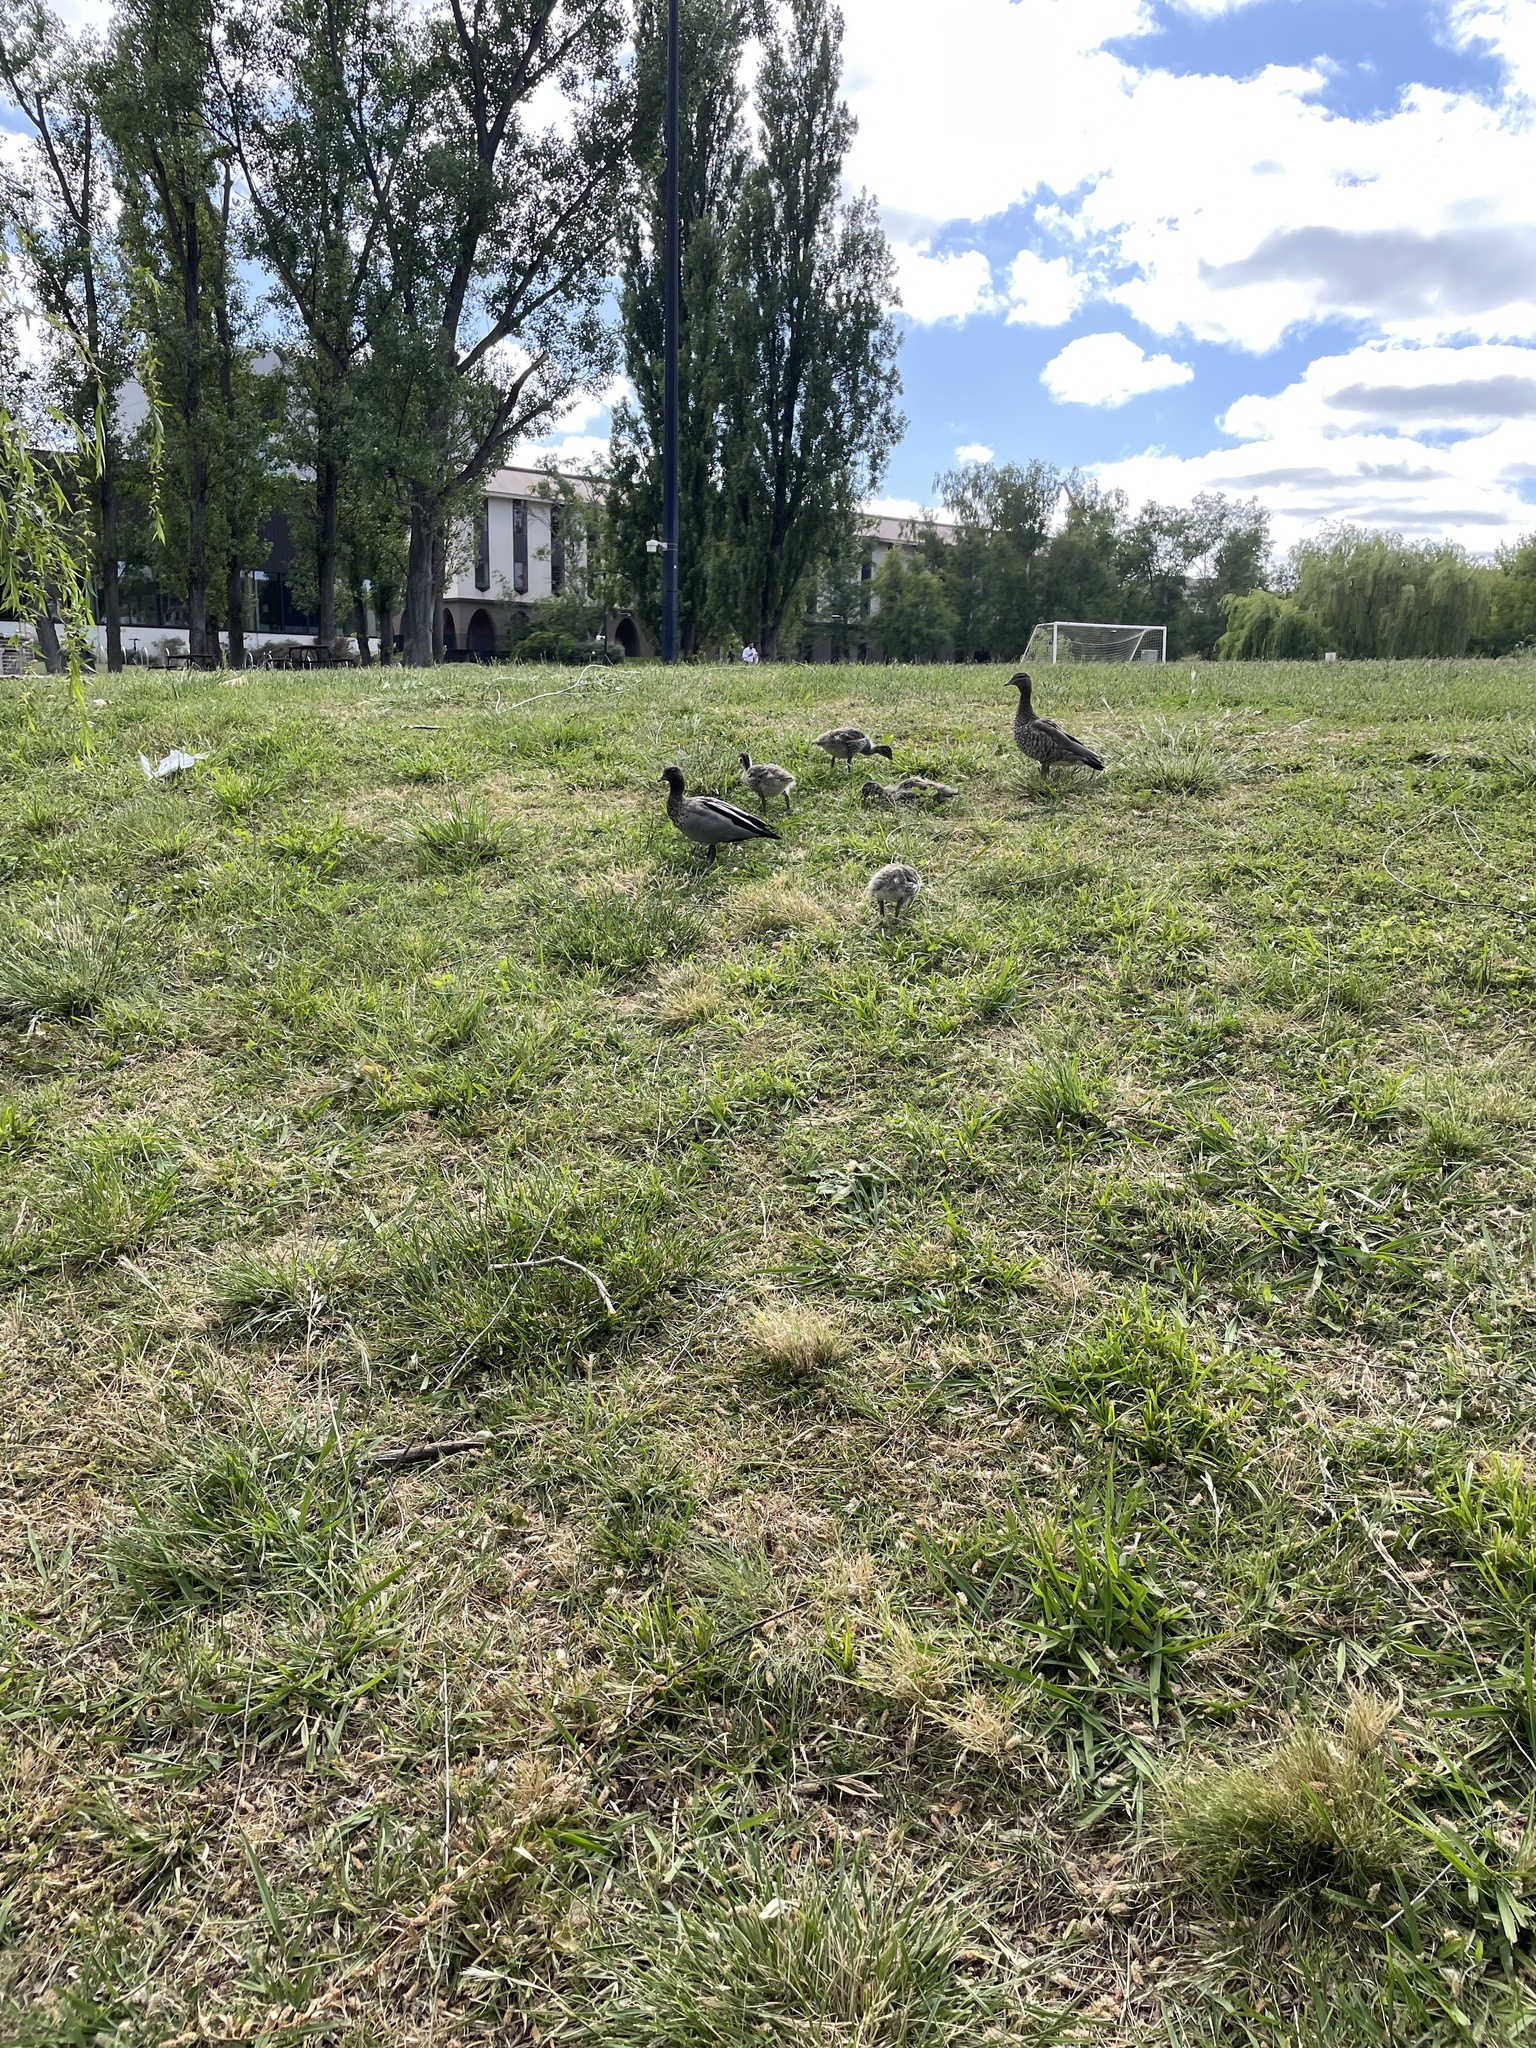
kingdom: Animalia
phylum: Chordata
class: Aves
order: Anseriformes
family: Anatidae
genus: Chenonetta
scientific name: Chenonetta jubata
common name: Maned duck
